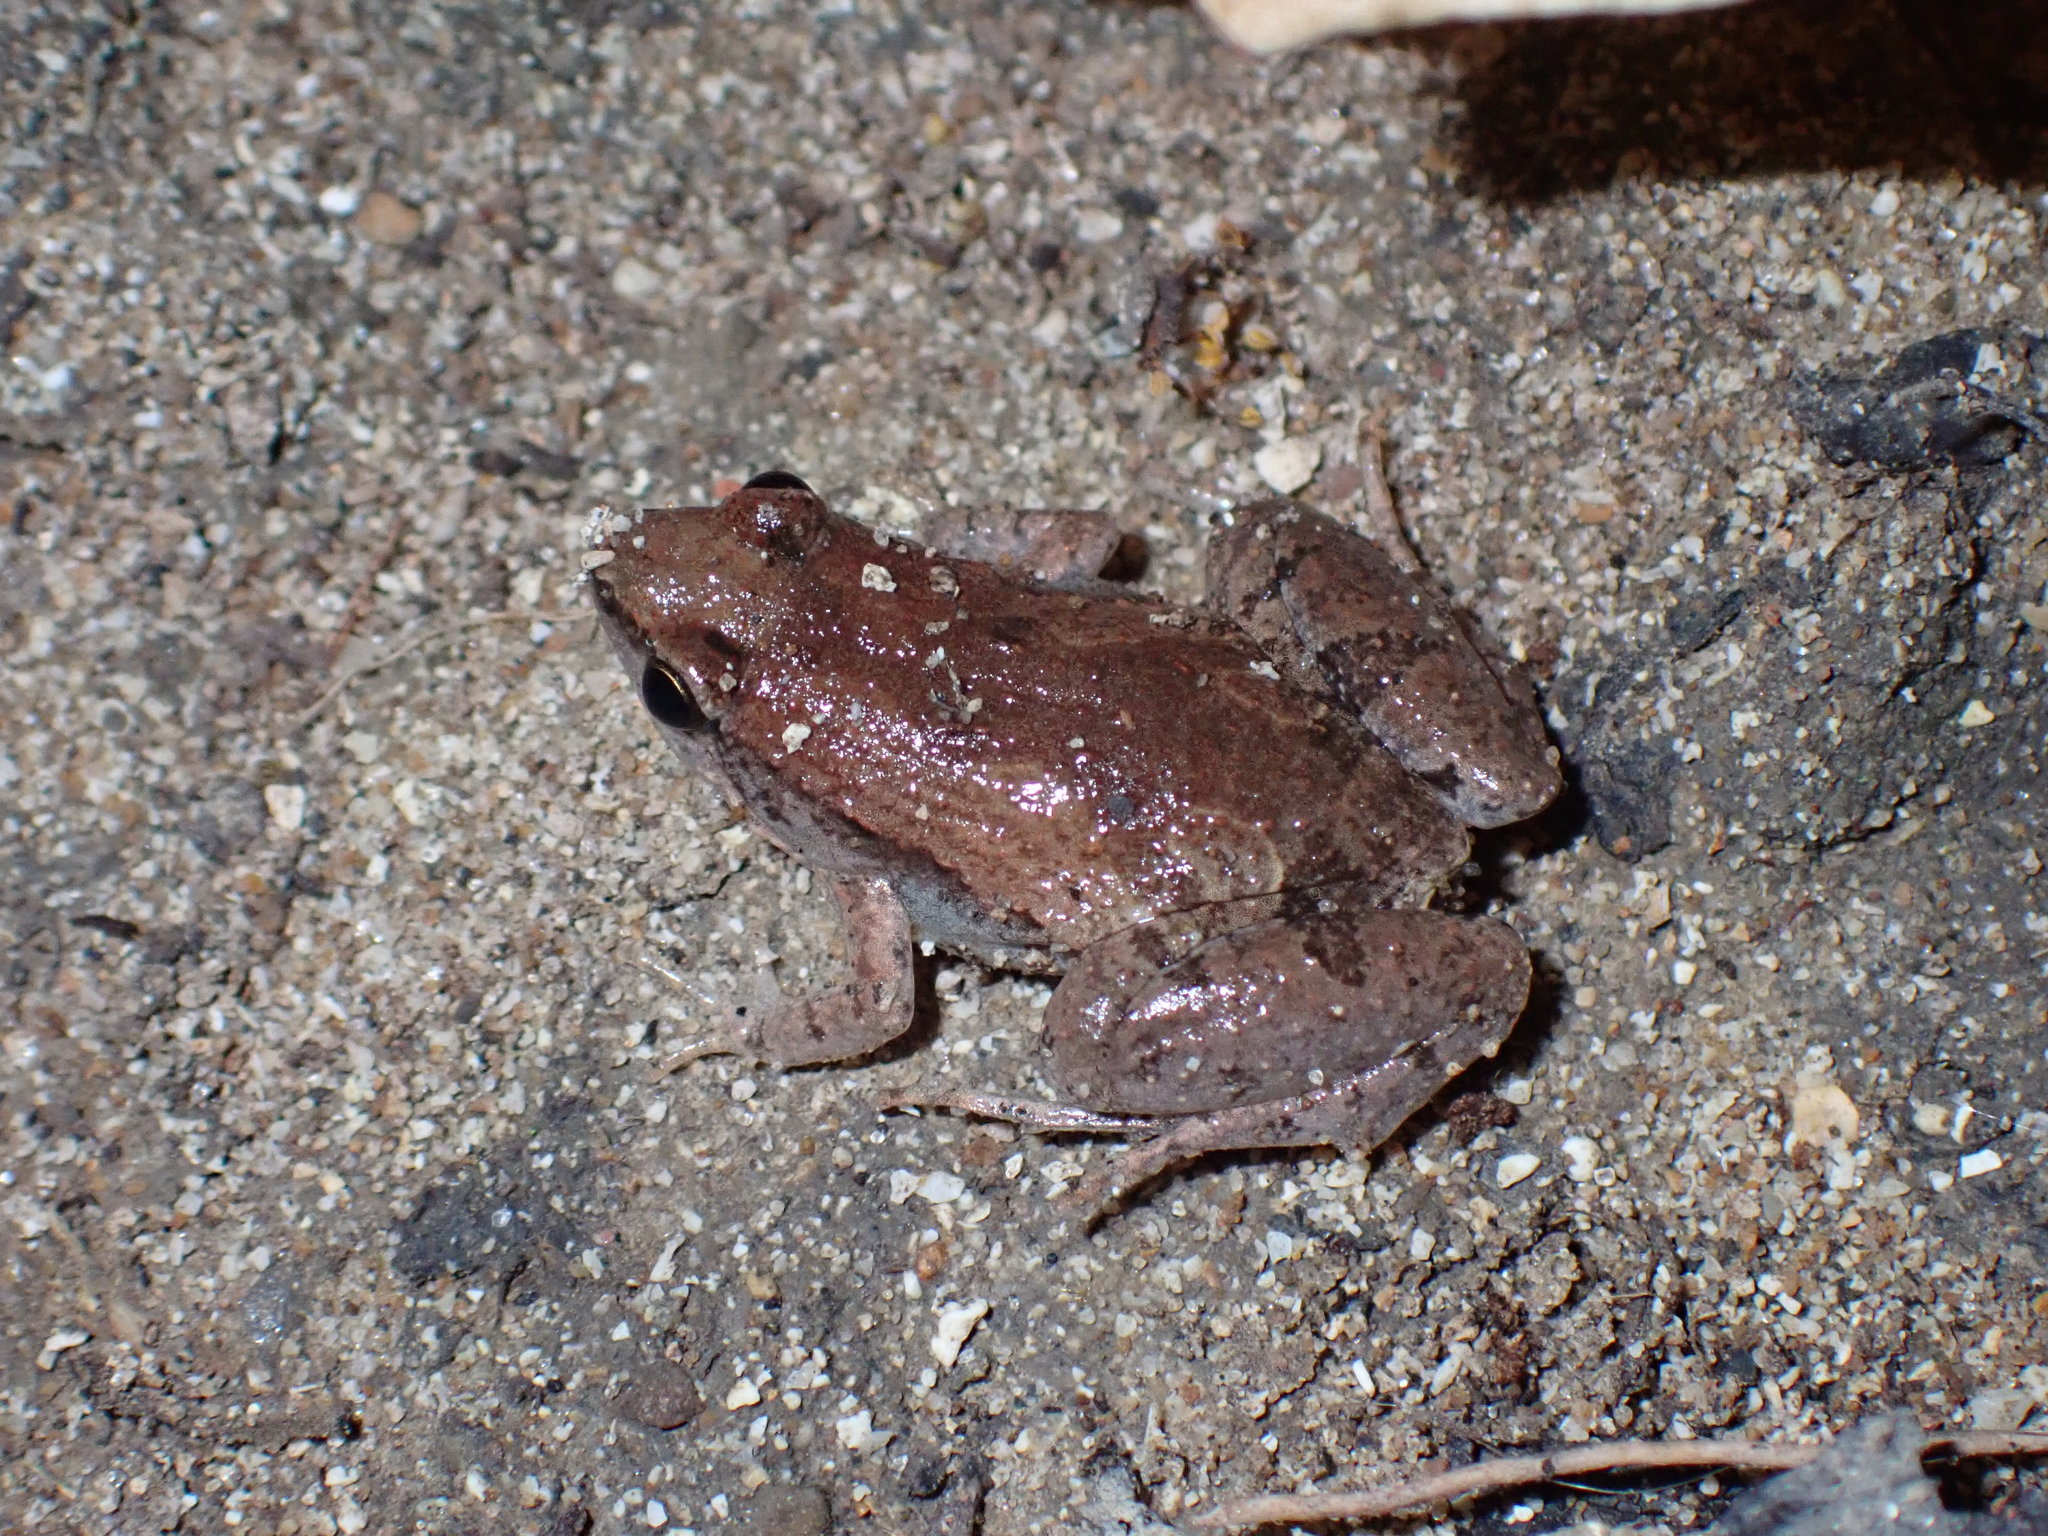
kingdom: Animalia
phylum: Chordata
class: Amphibia
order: Anura
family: Microhylidae
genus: Microhyla
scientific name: Microhyla mukhlesuri
